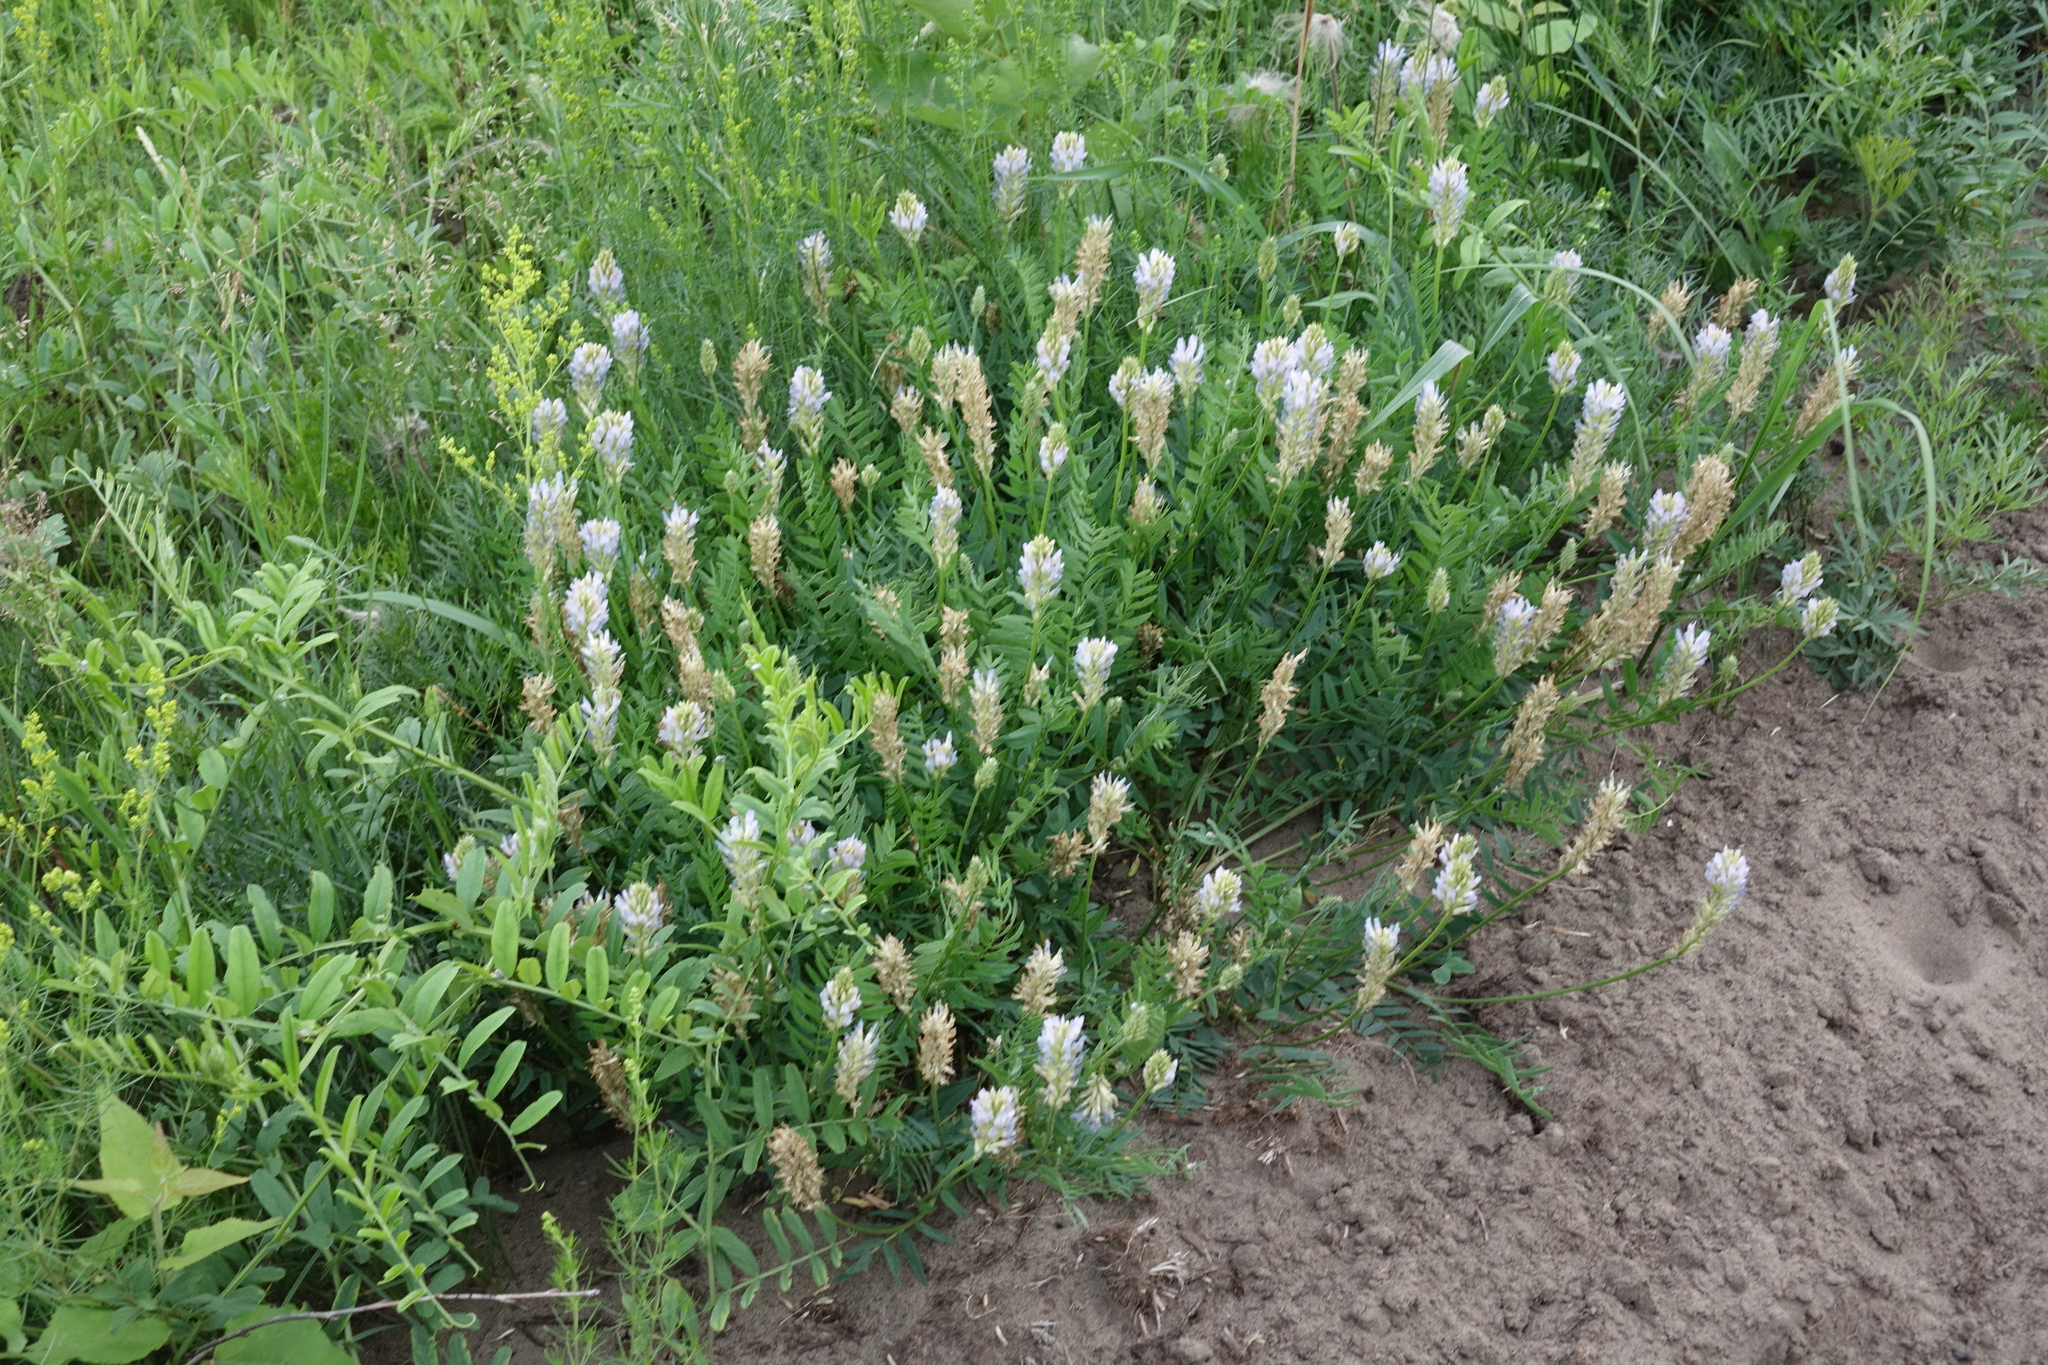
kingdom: Plantae
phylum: Tracheophyta
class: Magnoliopsida
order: Fabales
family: Fabaceae
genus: Astragalus
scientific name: Astragalus laxmannii
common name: Laxmann's milk-vetch
